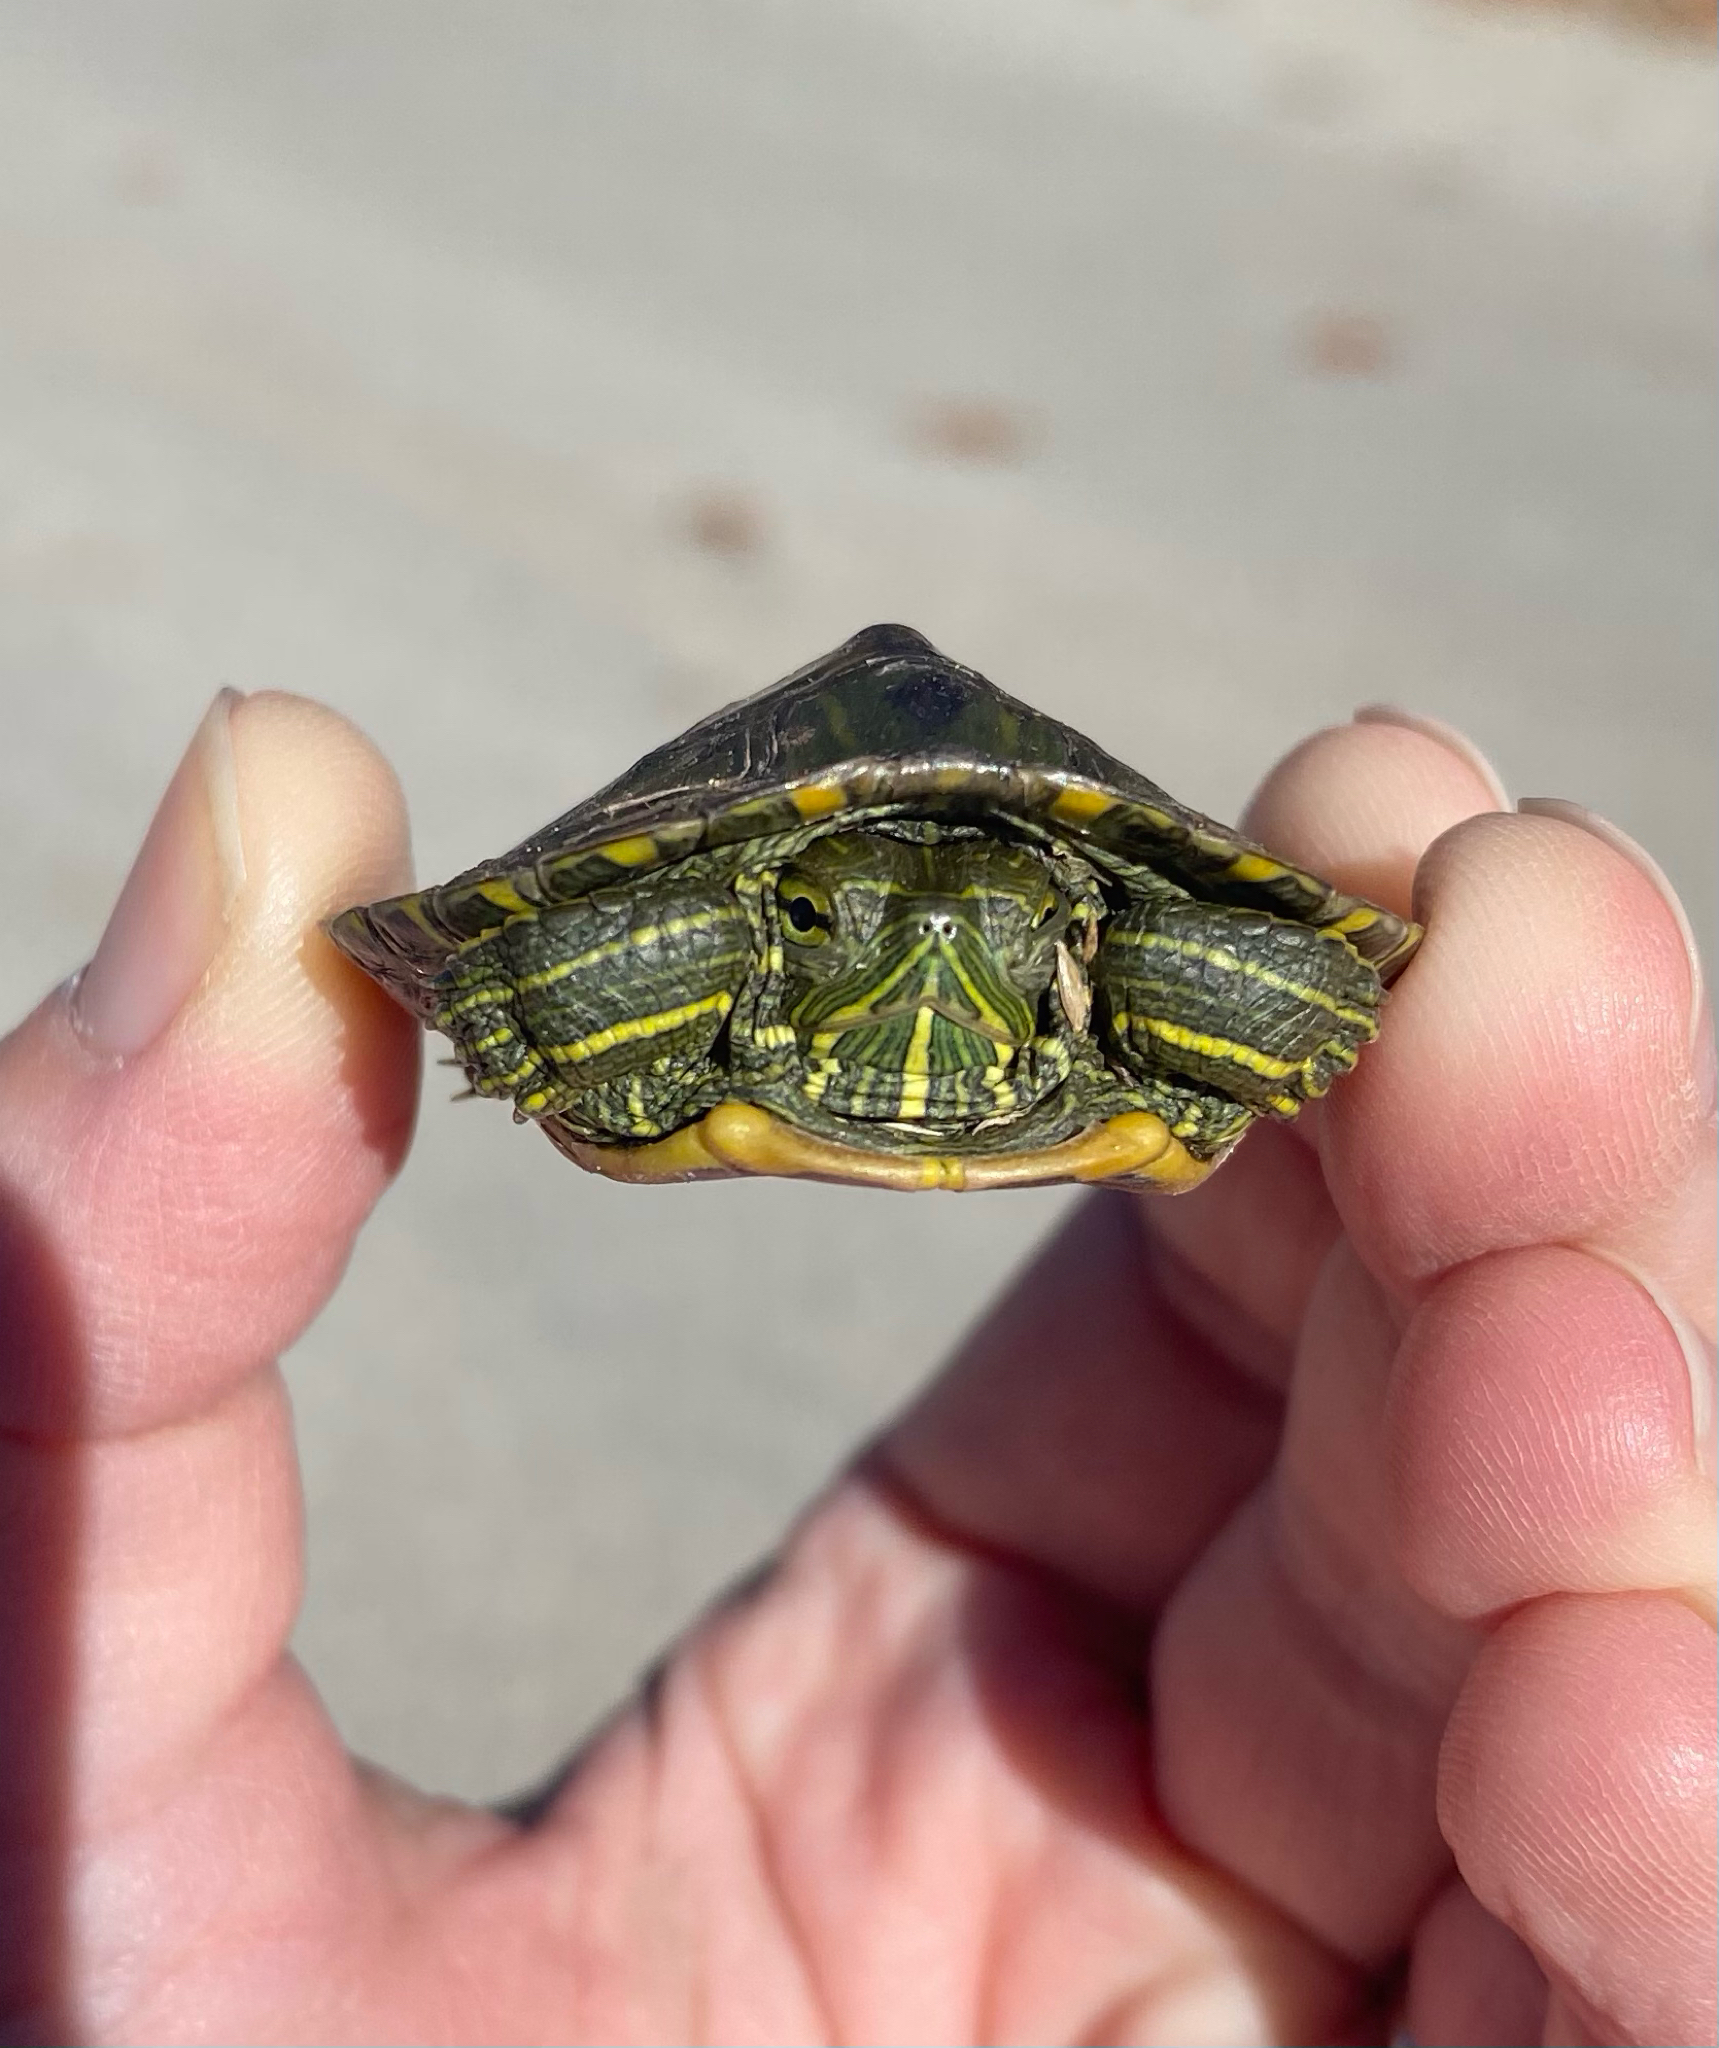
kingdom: Animalia
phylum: Chordata
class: Testudines
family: Emydidae
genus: Trachemys
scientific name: Trachemys scripta
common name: Slider
